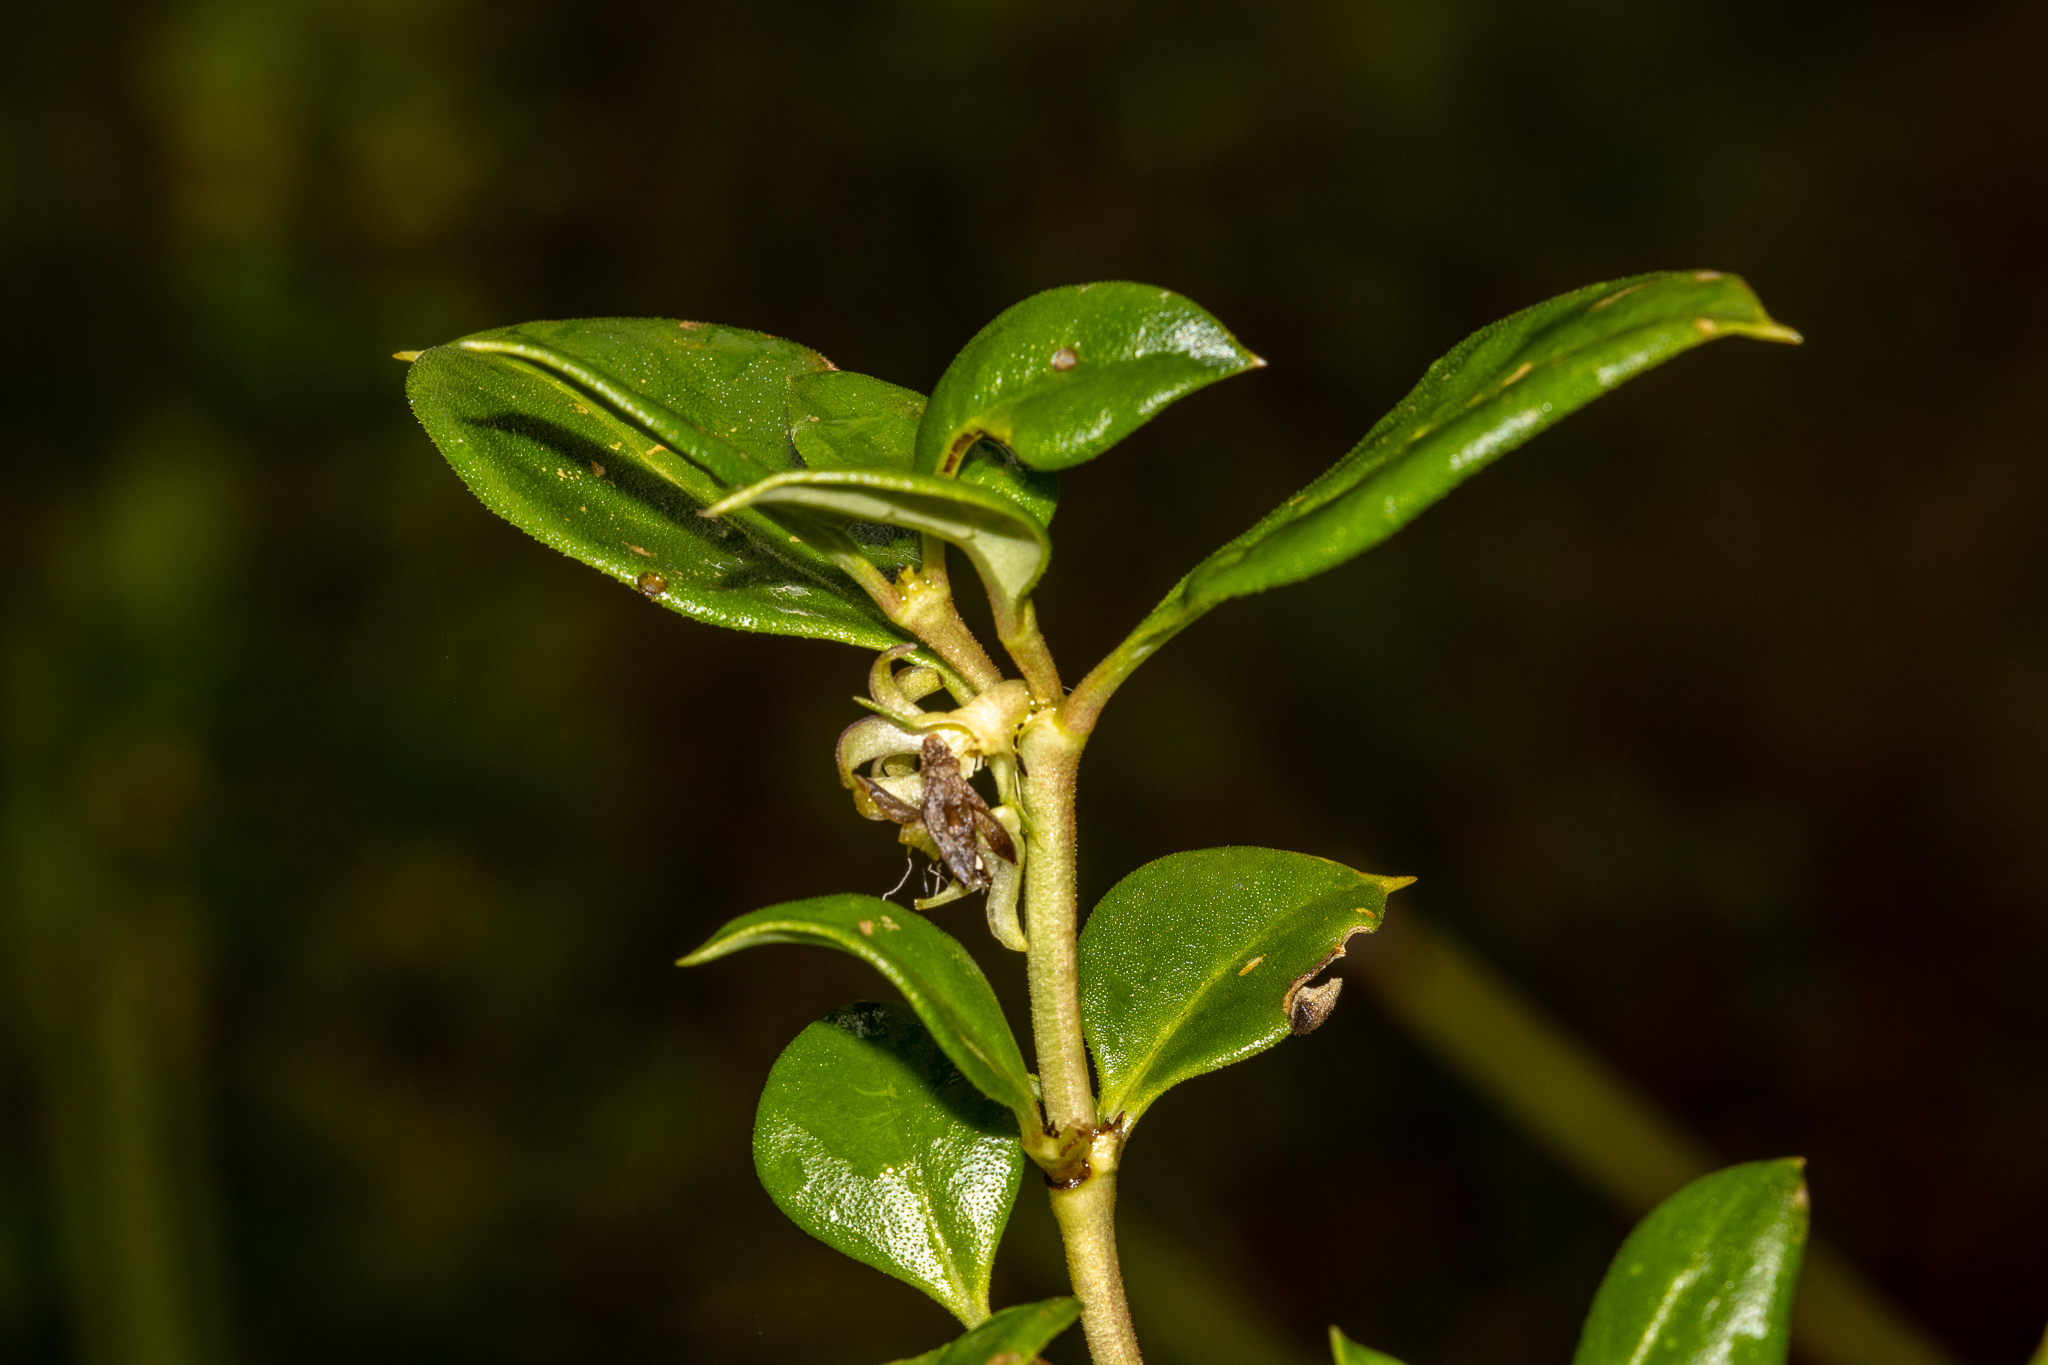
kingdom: Plantae
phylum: Tracheophyta
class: Magnoliopsida
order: Gentianales
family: Rubiaceae
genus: Coprosma
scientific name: Coprosma hirtella
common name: Rough coprosma
